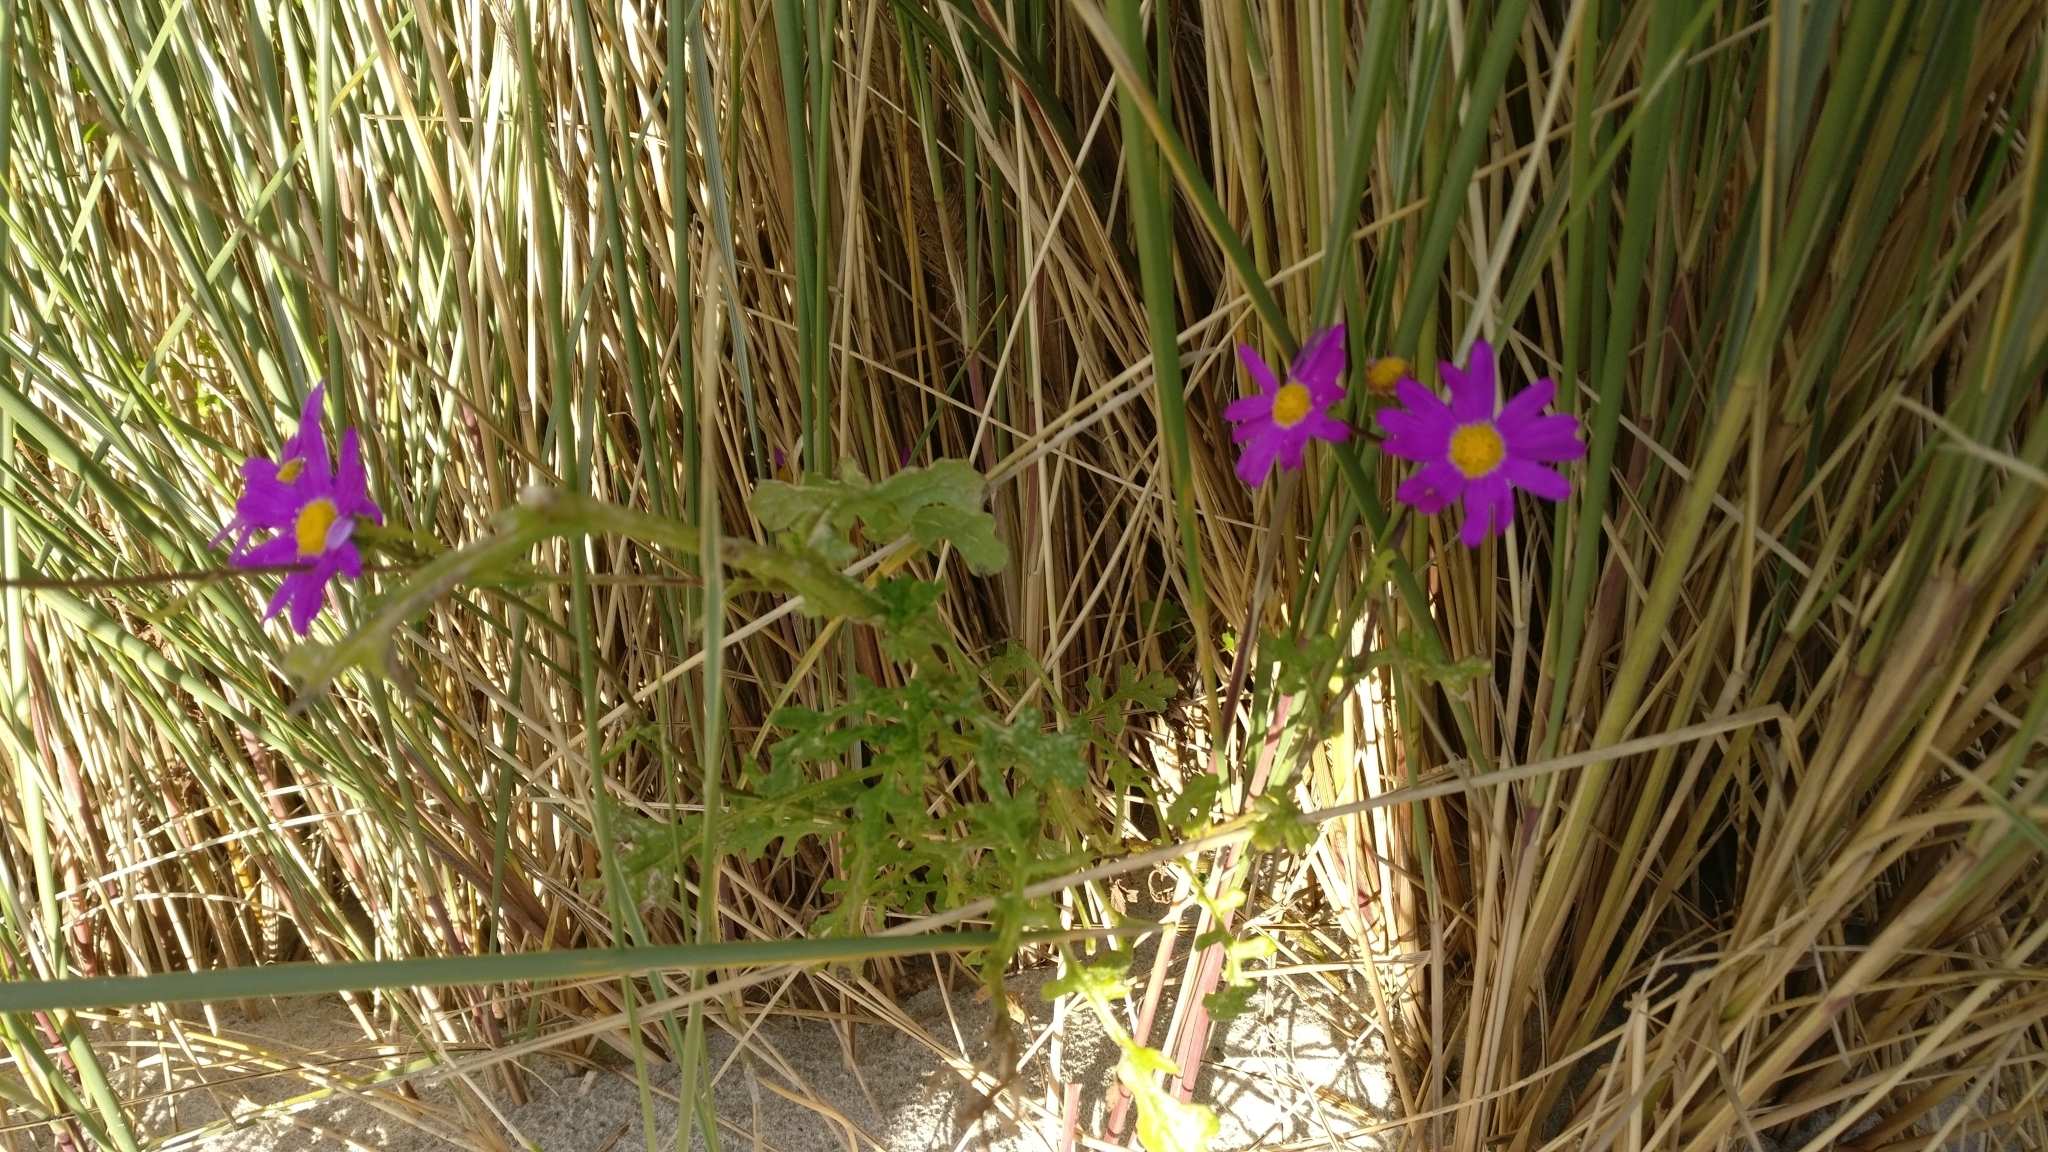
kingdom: Plantae
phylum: Tracheophyta
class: Magnoliopsida
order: Asterales
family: Asteraceae
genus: Senecio
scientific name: Senecio elegans
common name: Purple groundsel
